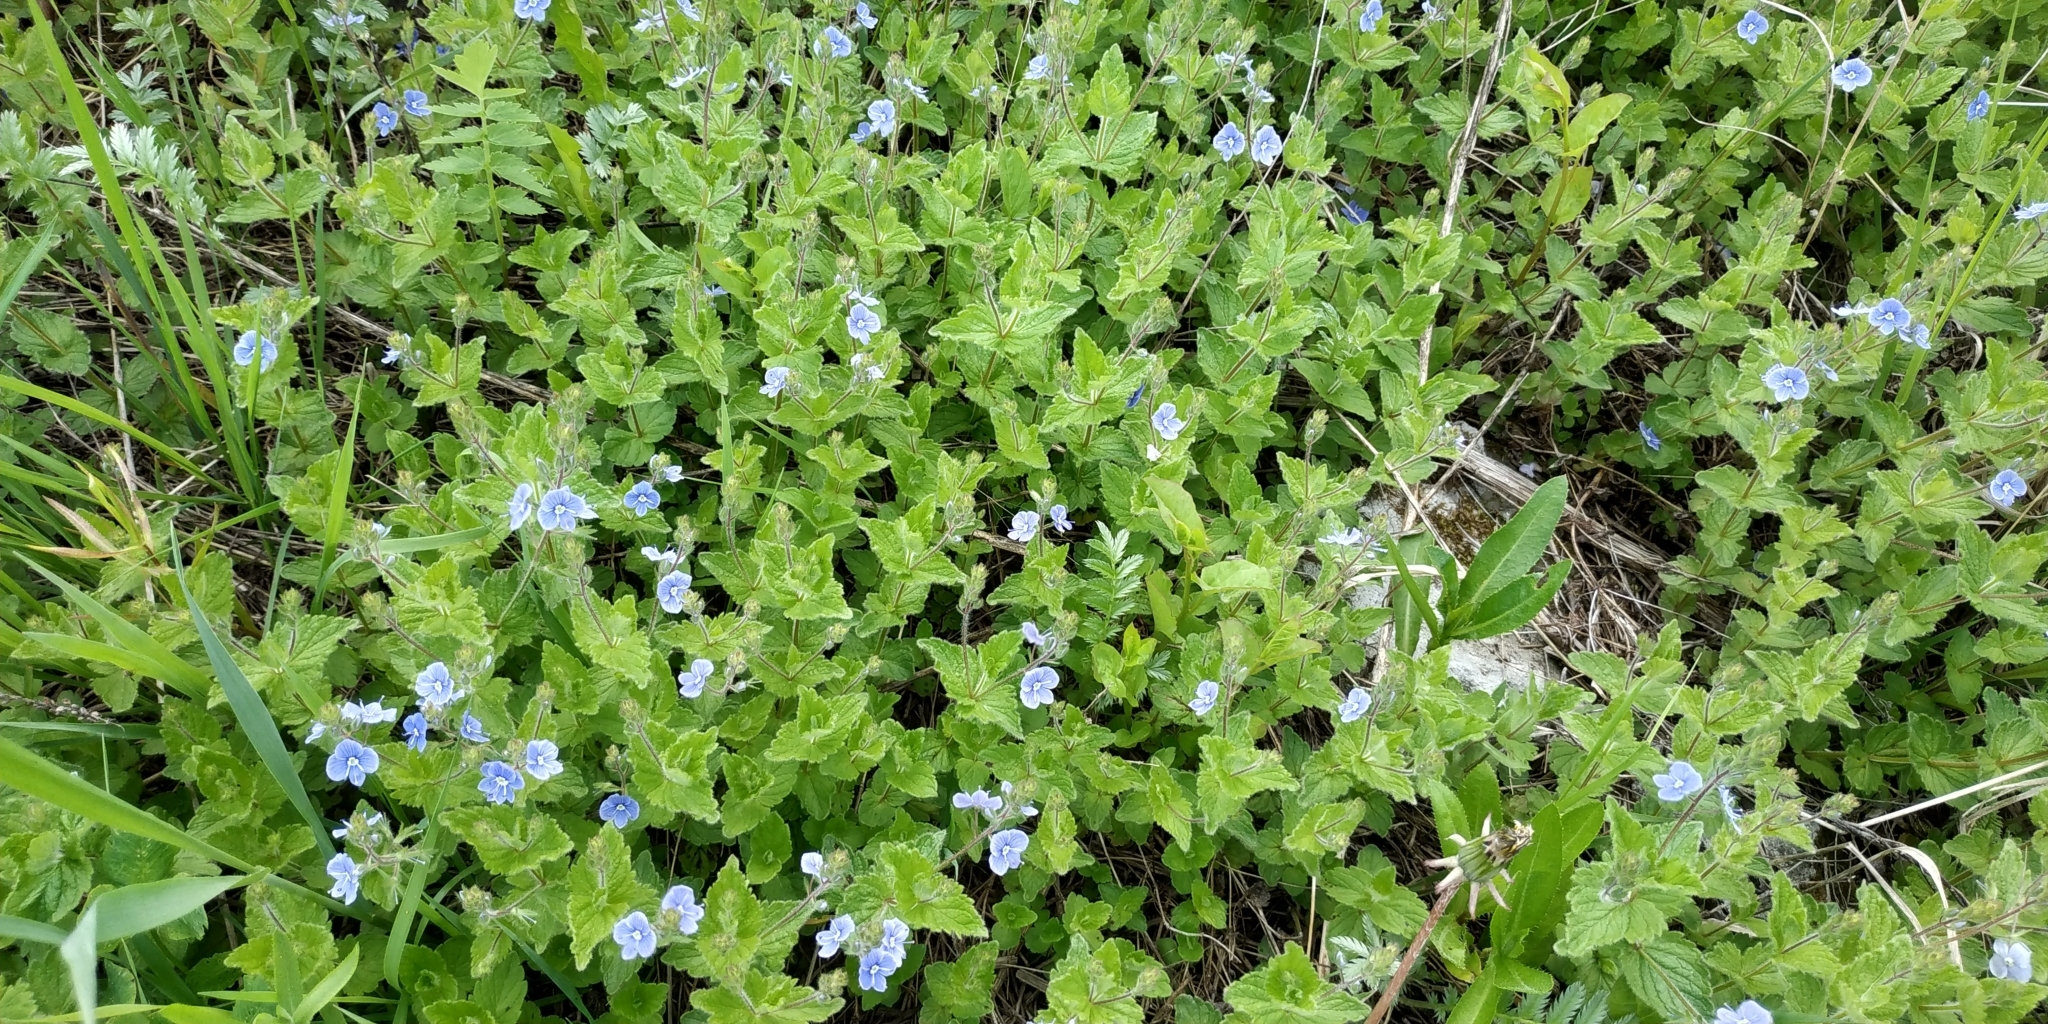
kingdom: Plantae
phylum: Tracheophyta
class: Magnoliopsida
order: Lamiales
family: Plantaginaceae
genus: Veronica
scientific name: Veronica chamaedrys
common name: Germander speedwell
